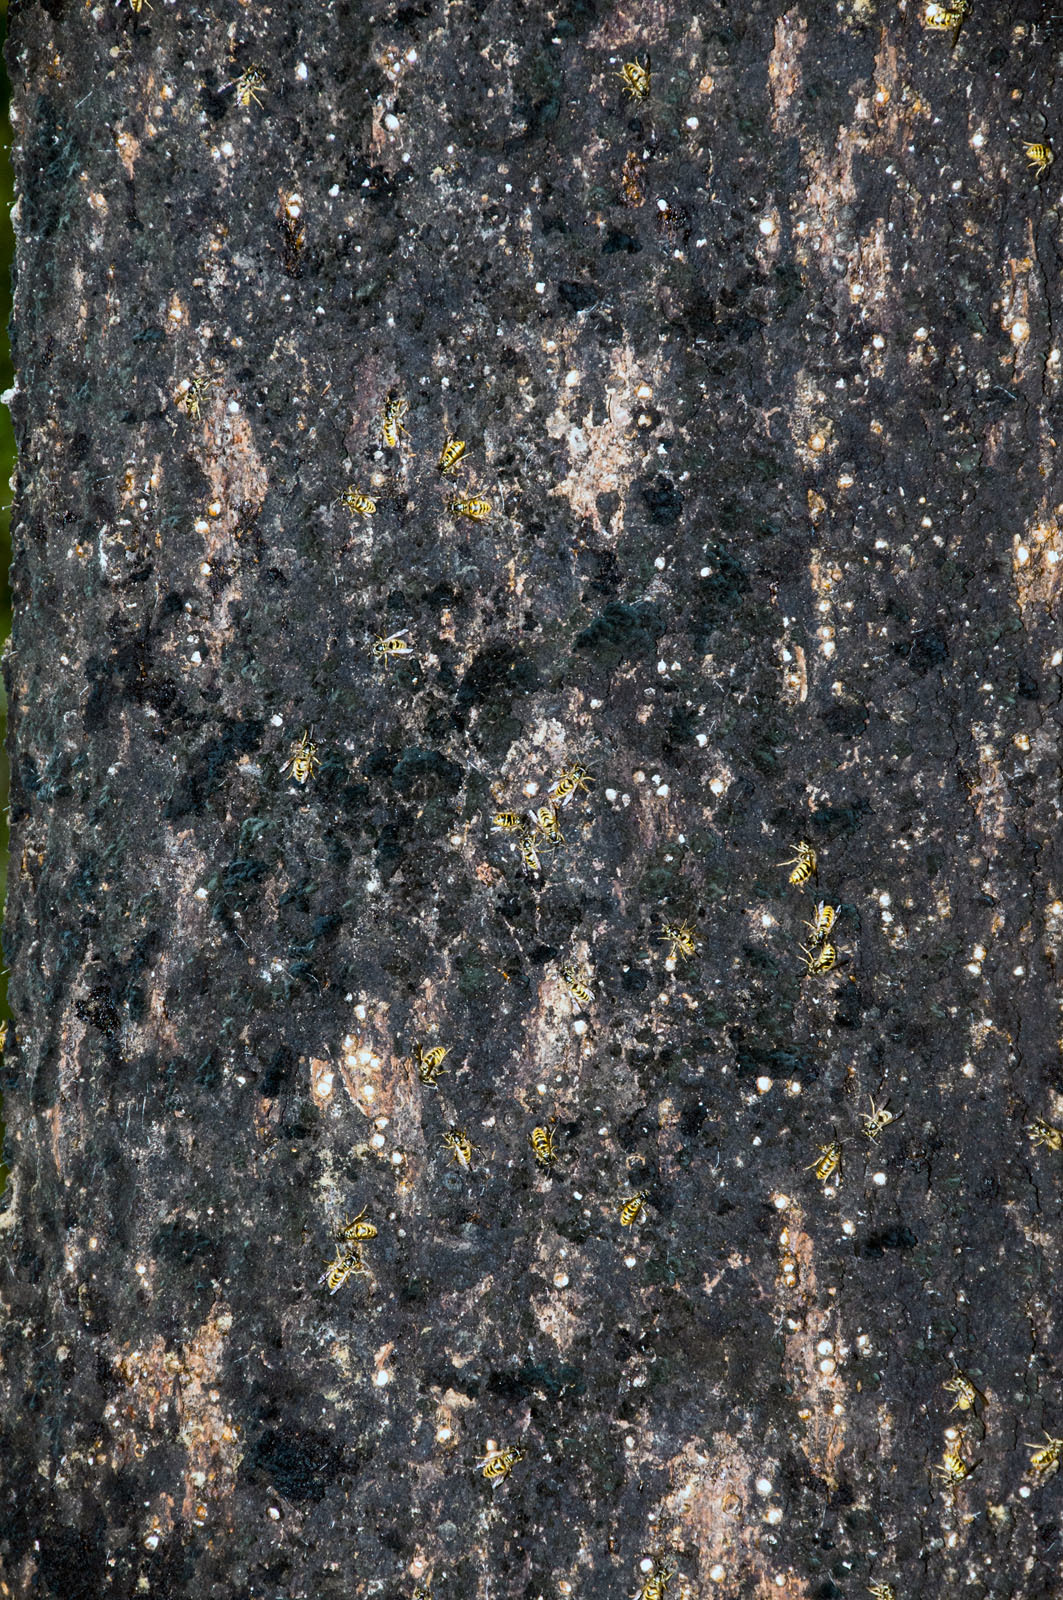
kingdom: Animalia
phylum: Arthropoda
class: Insecta
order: Hymenoptera
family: Vespidae
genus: Vespula
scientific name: Vespula vulgaris
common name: Common wasp
